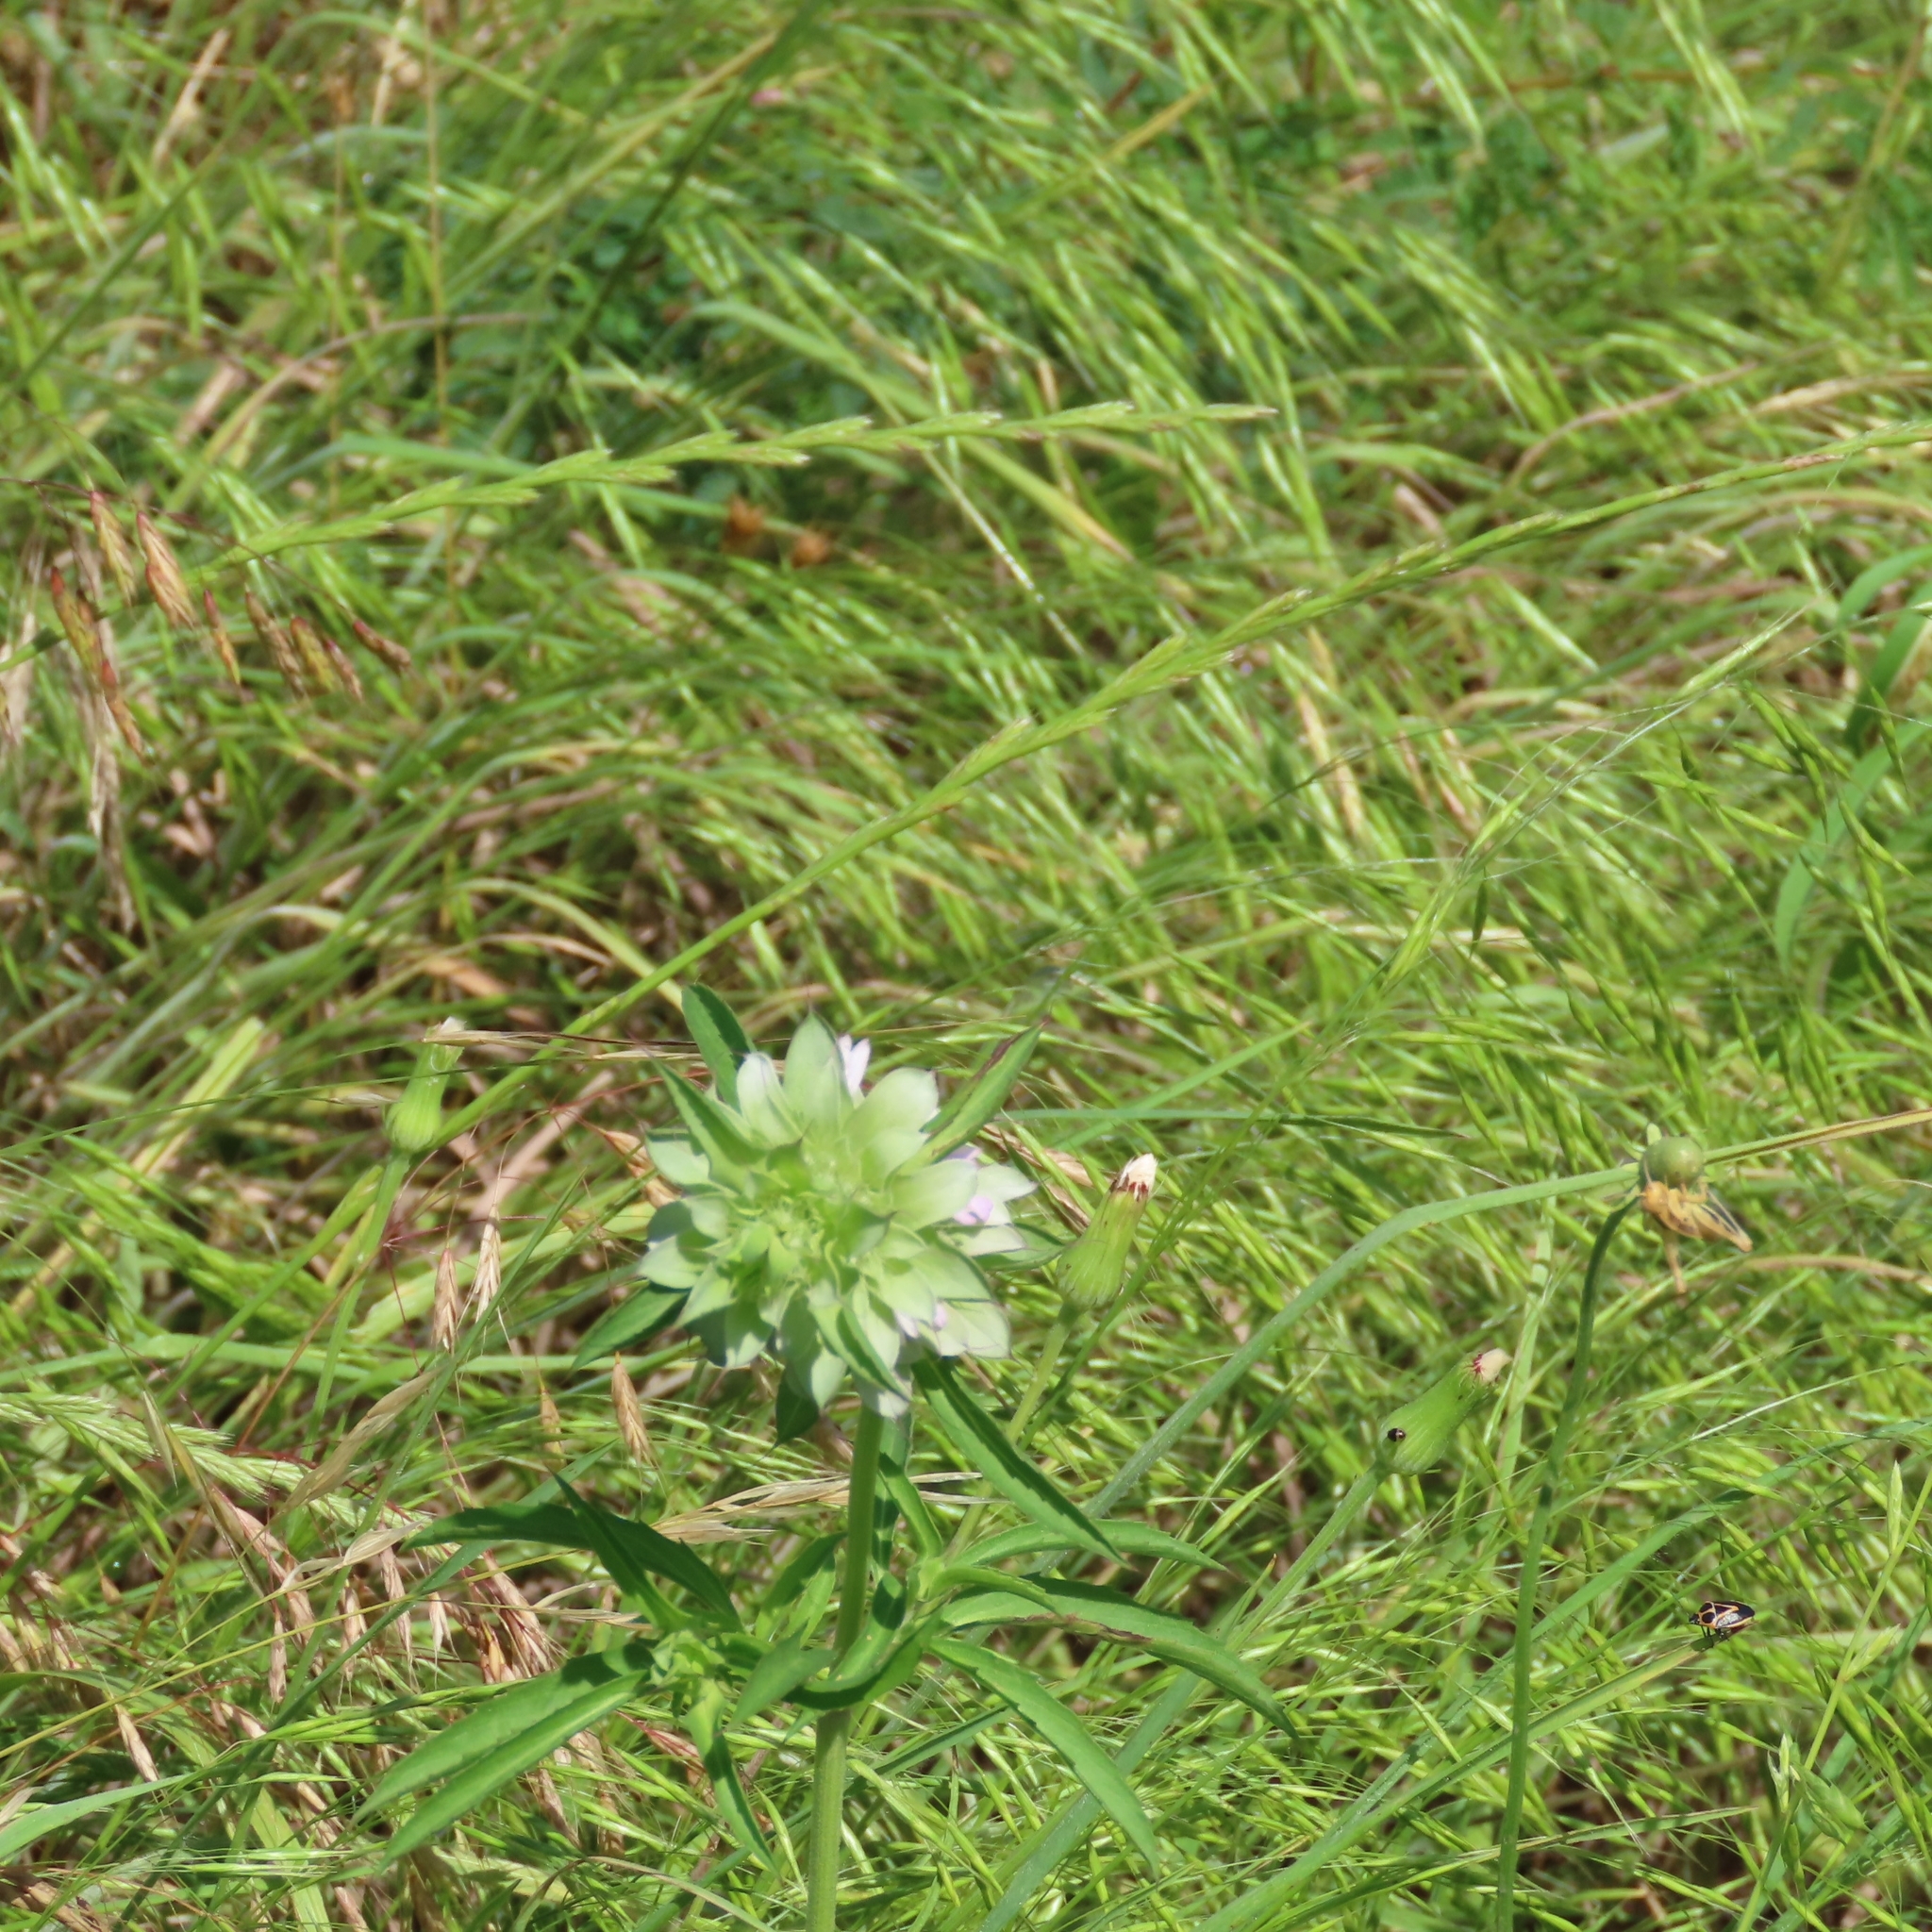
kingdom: Plantae
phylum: Tracheophyta
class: Magnoliopsida
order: Lamiales
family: Lamiaceae
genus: Monarda
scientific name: Monarda citriodora
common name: Lemon beebalm
